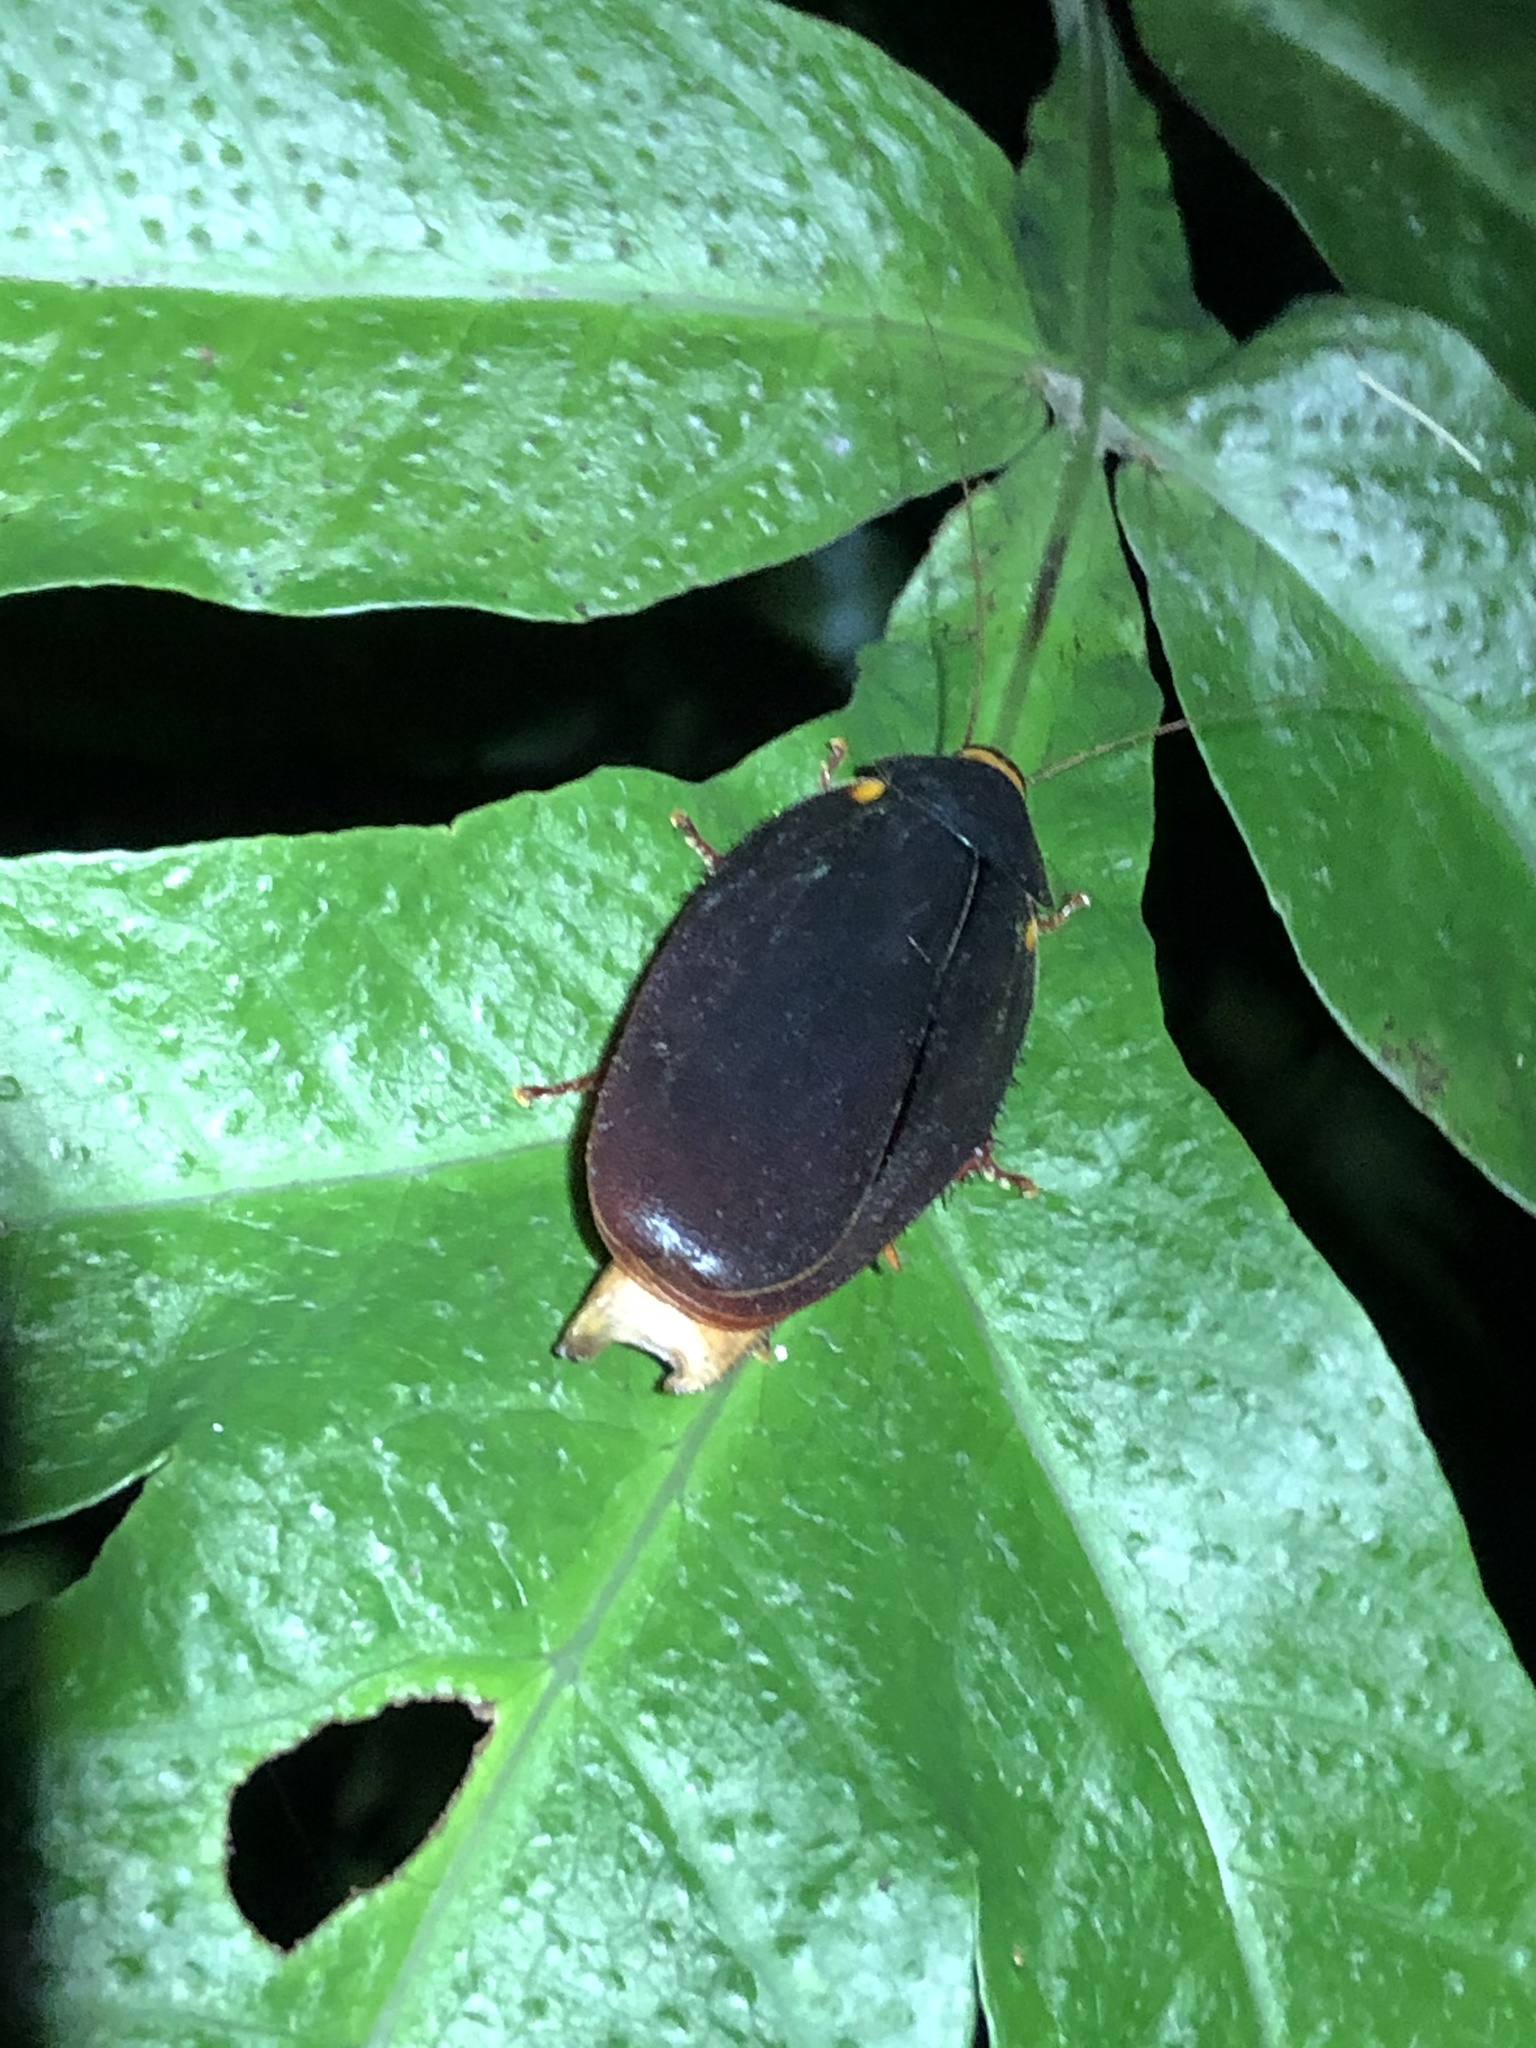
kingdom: Animalia
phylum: Arthropoda
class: Insecta
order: Blattodea
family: Ectobiidae
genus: Nyctibora
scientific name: Nyctibora humeralis
